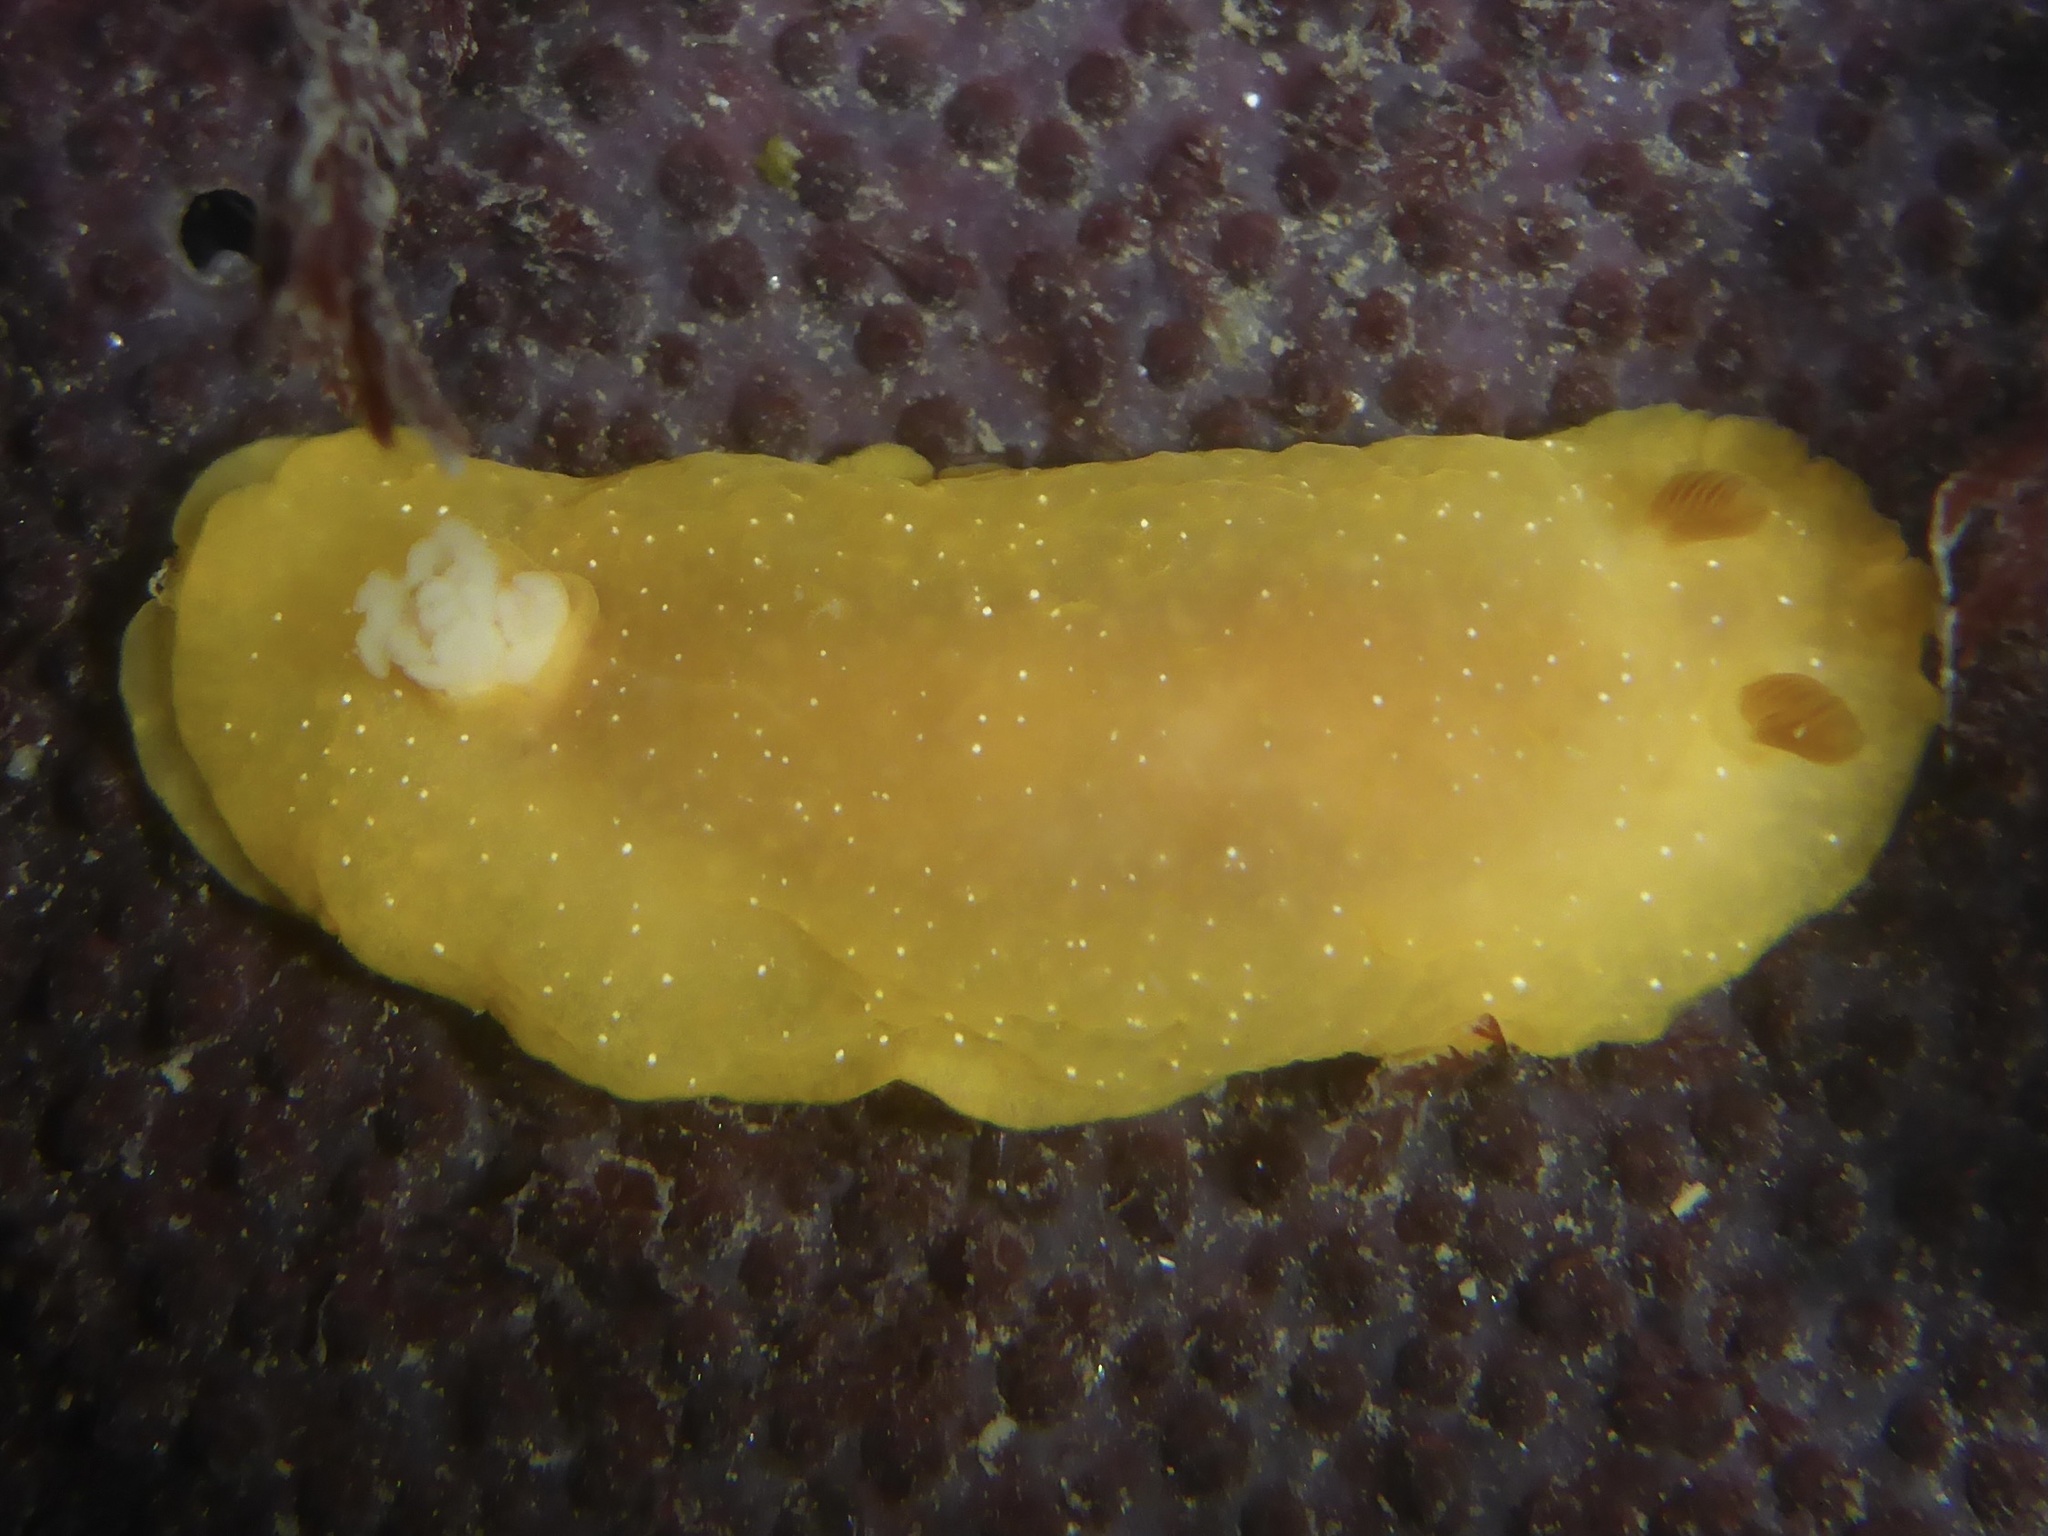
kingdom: Animalia
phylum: Mollusca
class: Gastropoda
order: Nudibranchia
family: Dendrodorididae
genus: Doriopsilla
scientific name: Doriopsilla fulva
